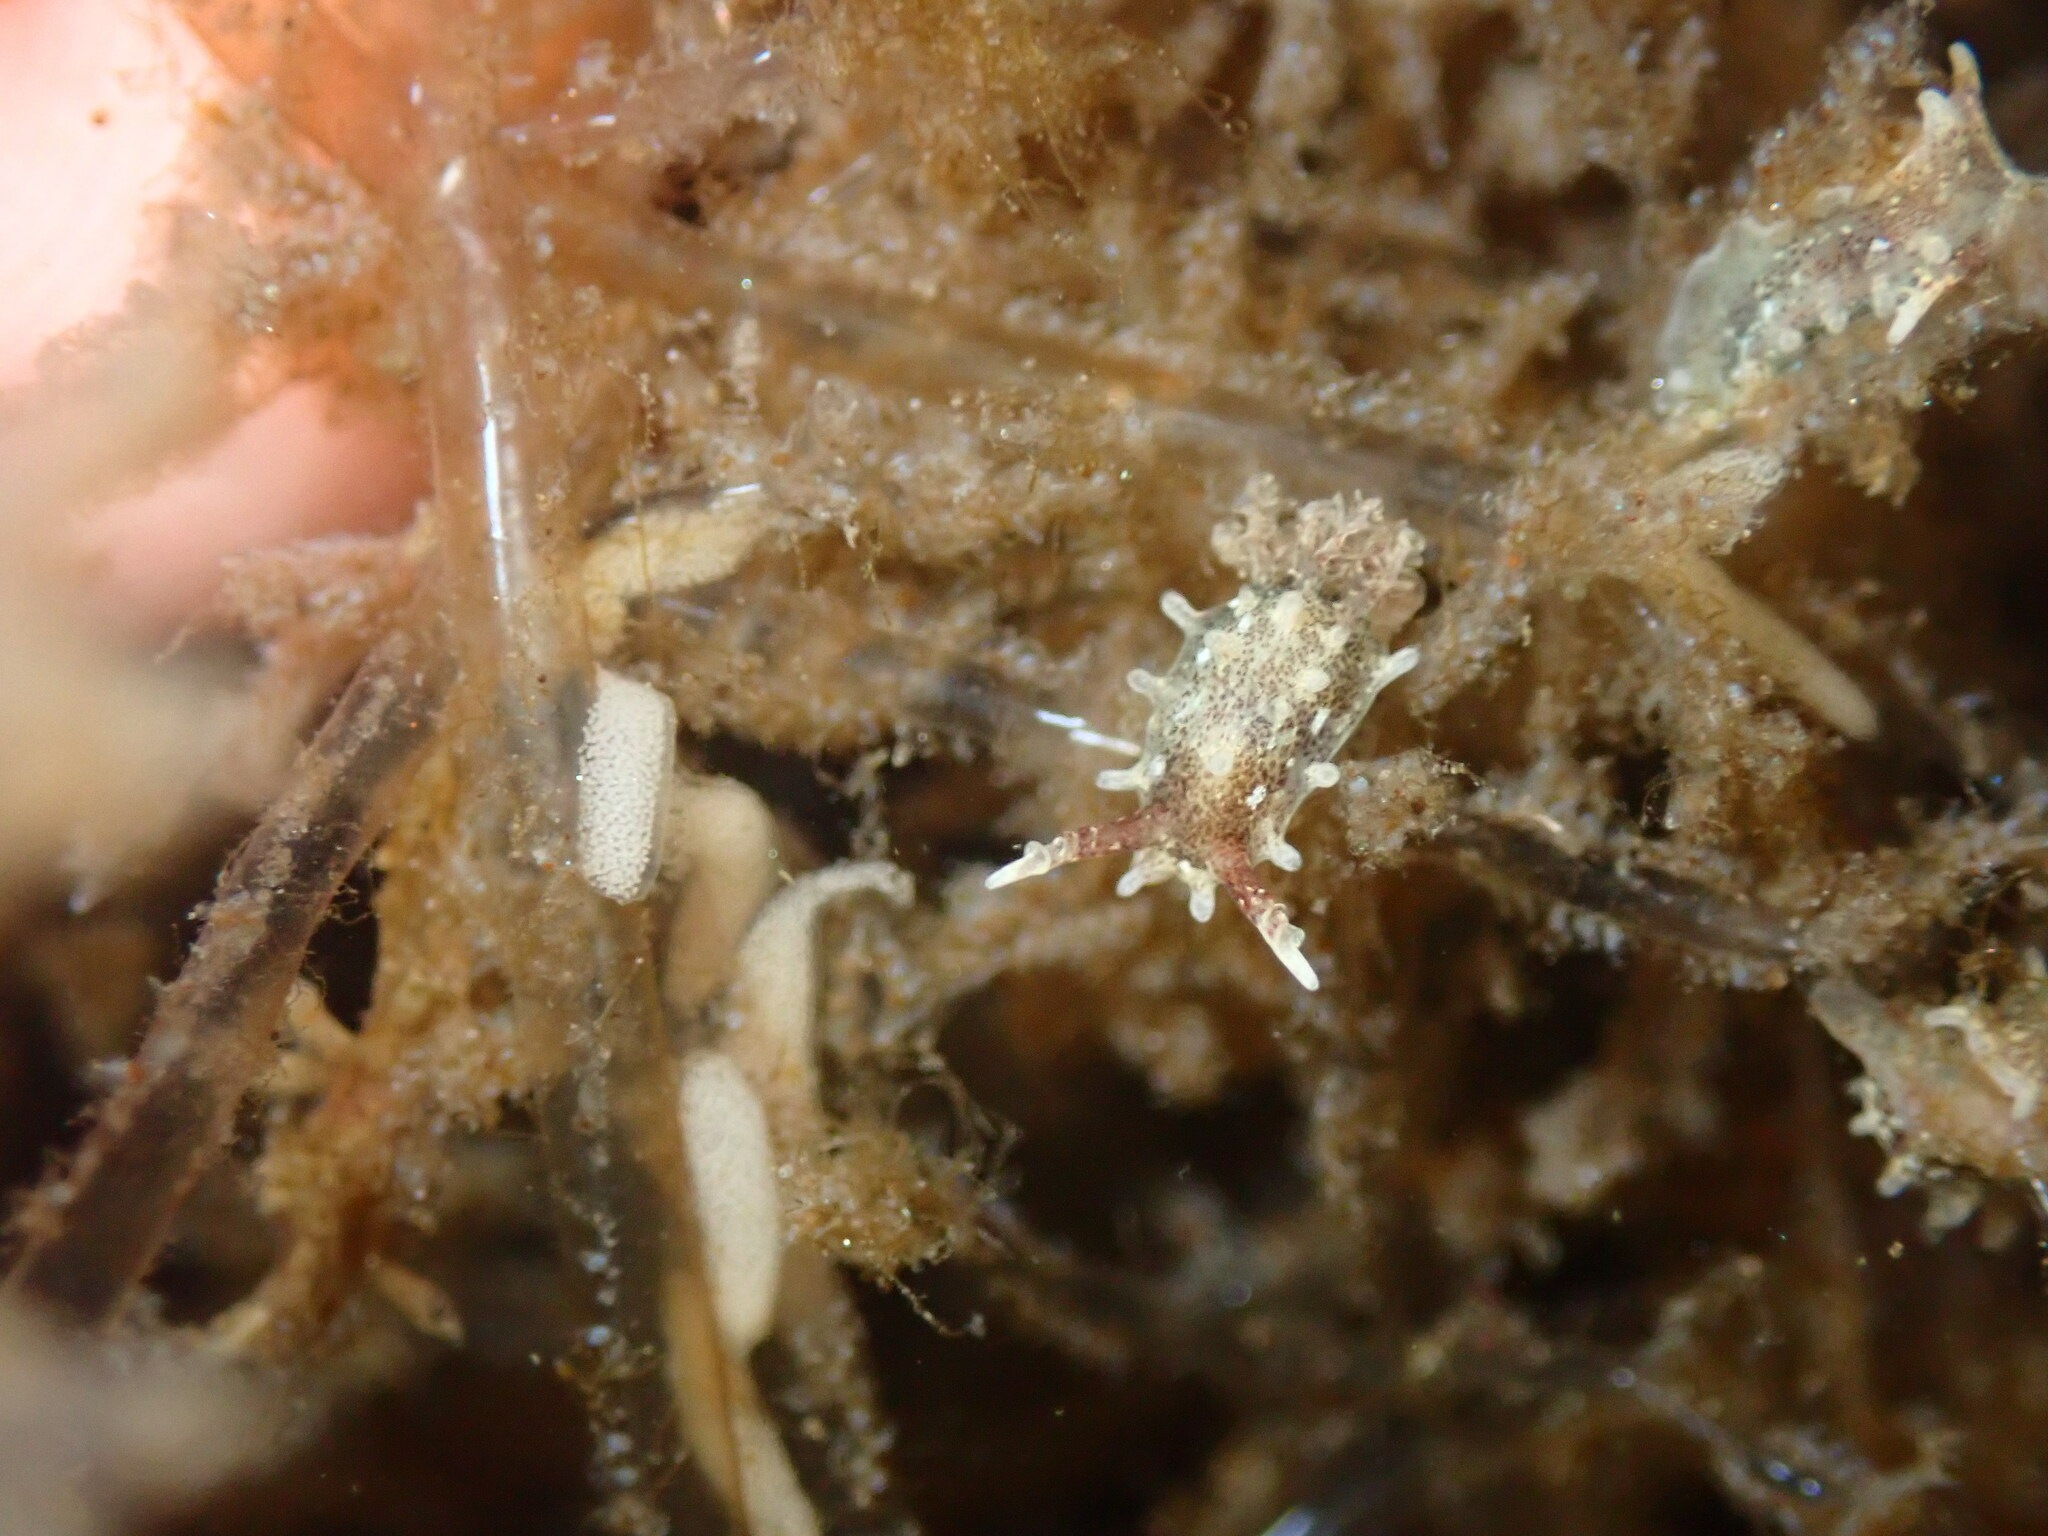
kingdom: Animalia
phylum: Mollusca
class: Gastropoda
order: Nudibranchia
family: Goniodorididae
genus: Okenia
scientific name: Okenia
